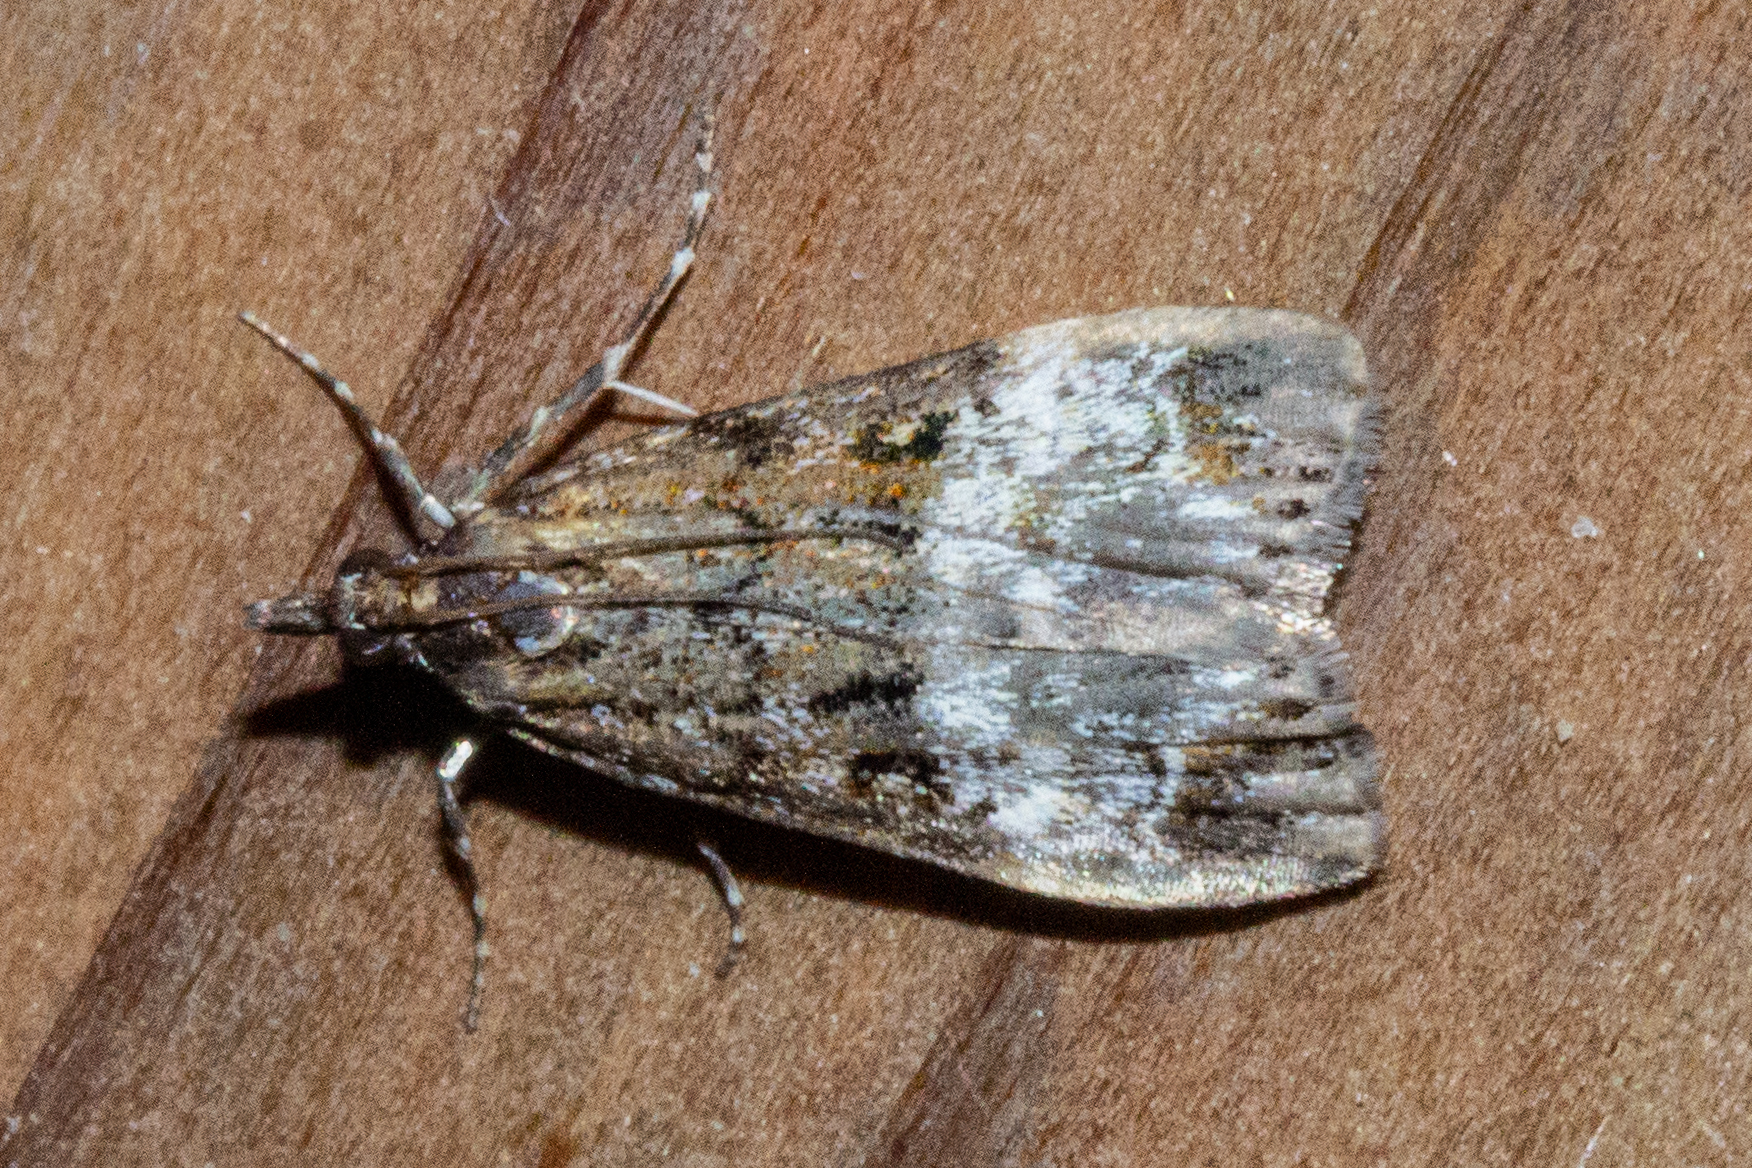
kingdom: Animalia
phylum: Arthropoda
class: Insecta
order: Lepidoptera
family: Crambidae
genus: Scoparia
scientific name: Scoparia minusculalis
